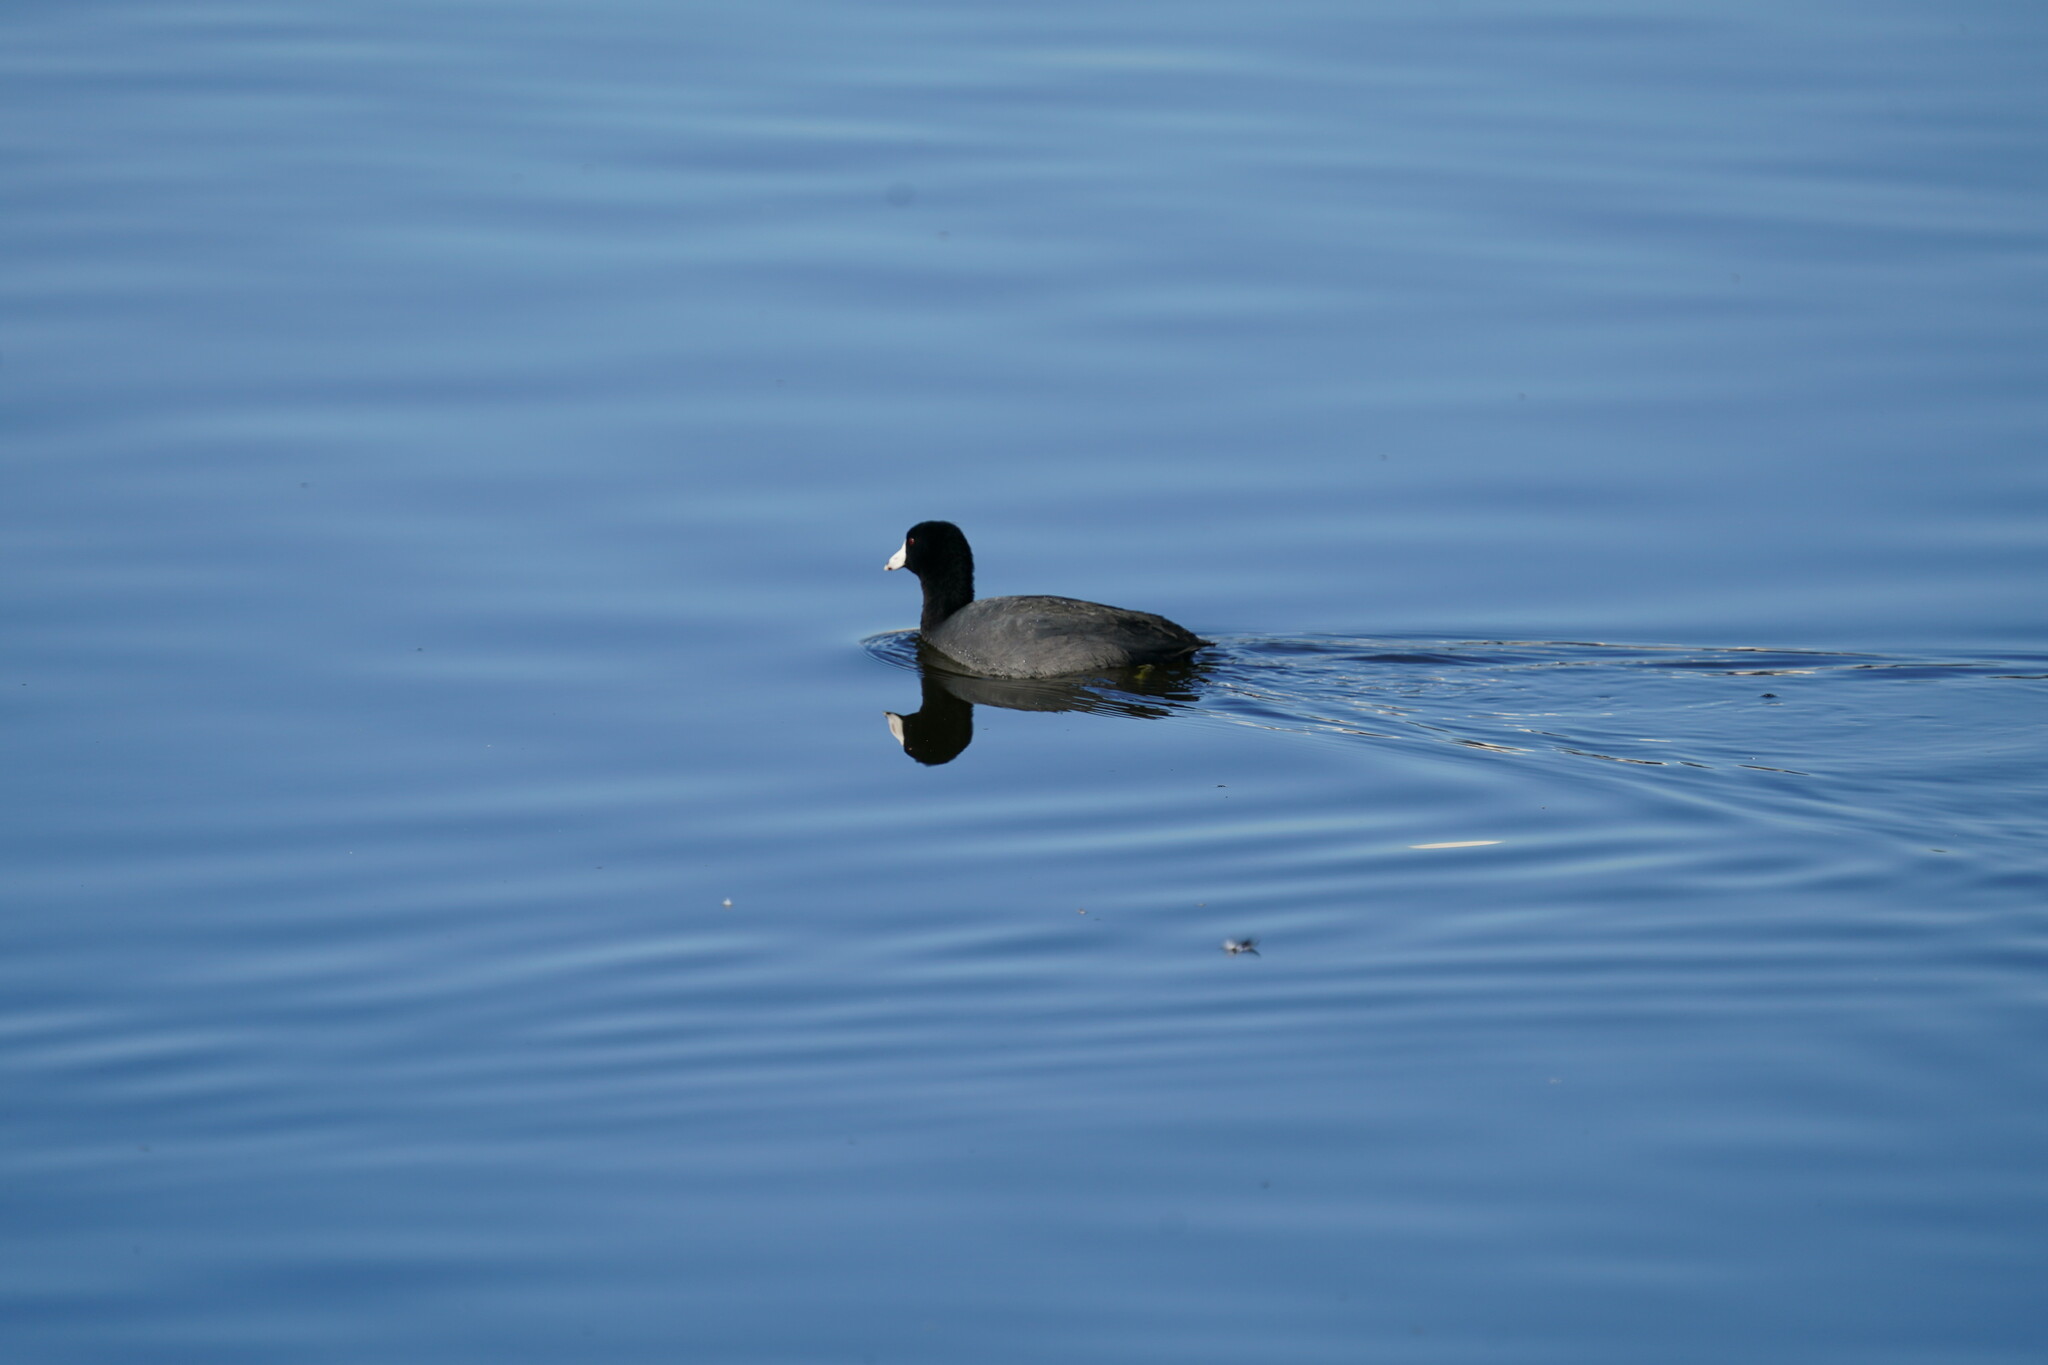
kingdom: Animalia
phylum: Chordata
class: Aves
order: Gruiformes
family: Rallidae
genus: Fulica
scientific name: Fulica americana
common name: American coot
